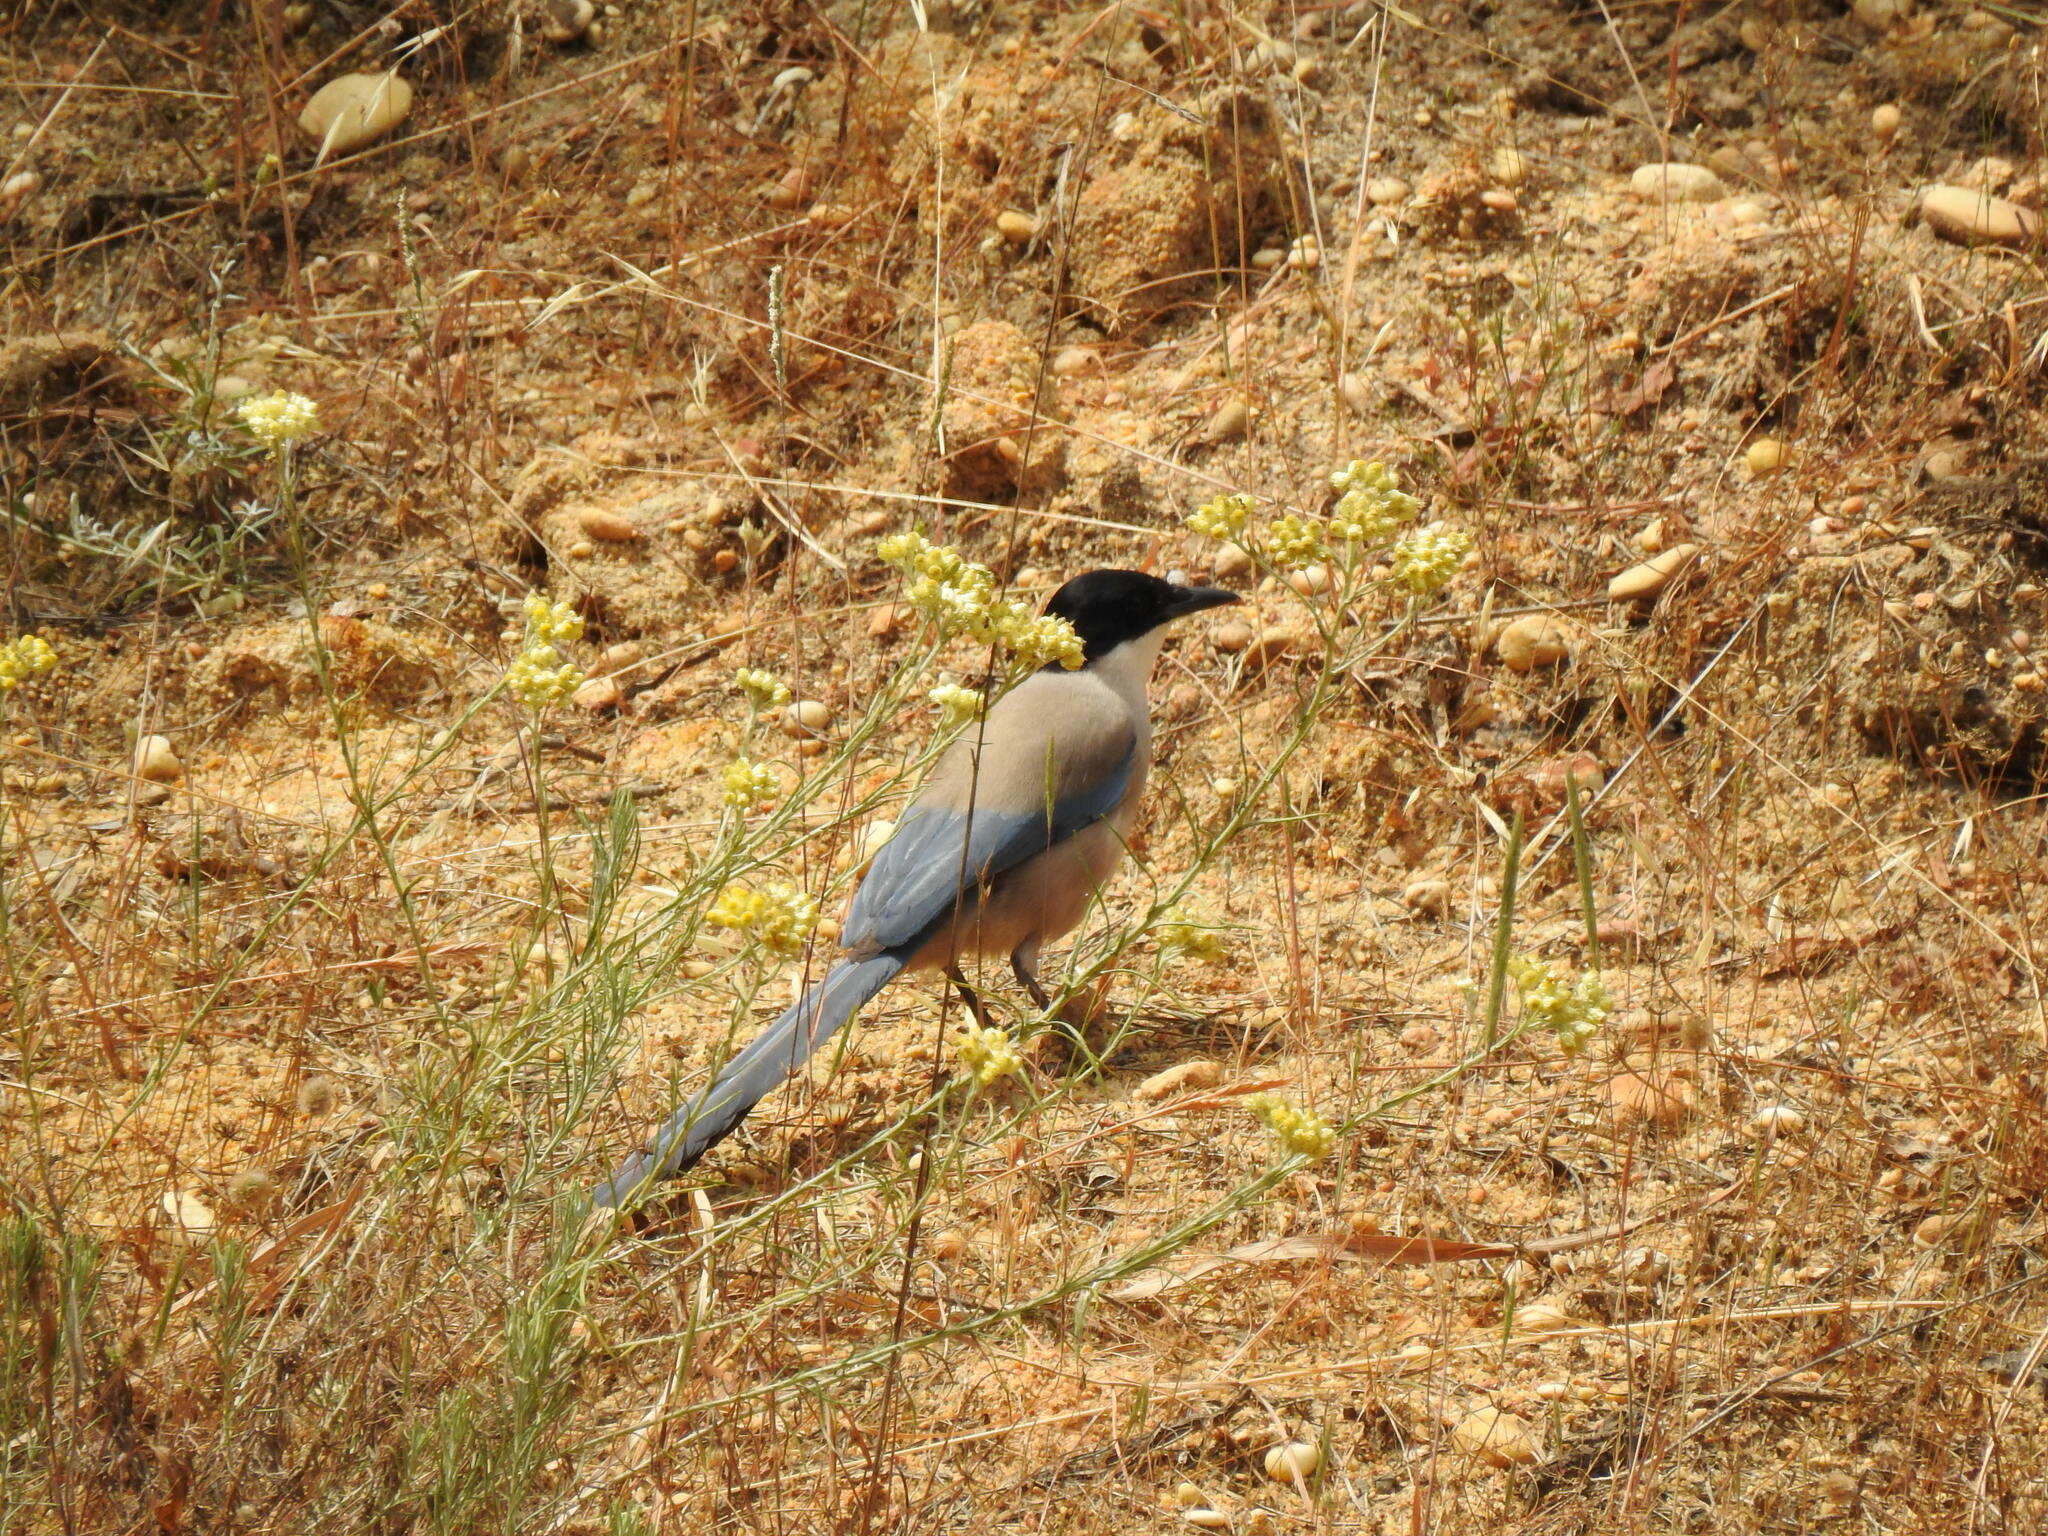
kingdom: Animalia
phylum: Chordata
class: Aves
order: Passeriformes
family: Corvidae
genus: Cyanopica
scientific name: Cyanopica cooki
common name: Iberian magpie
